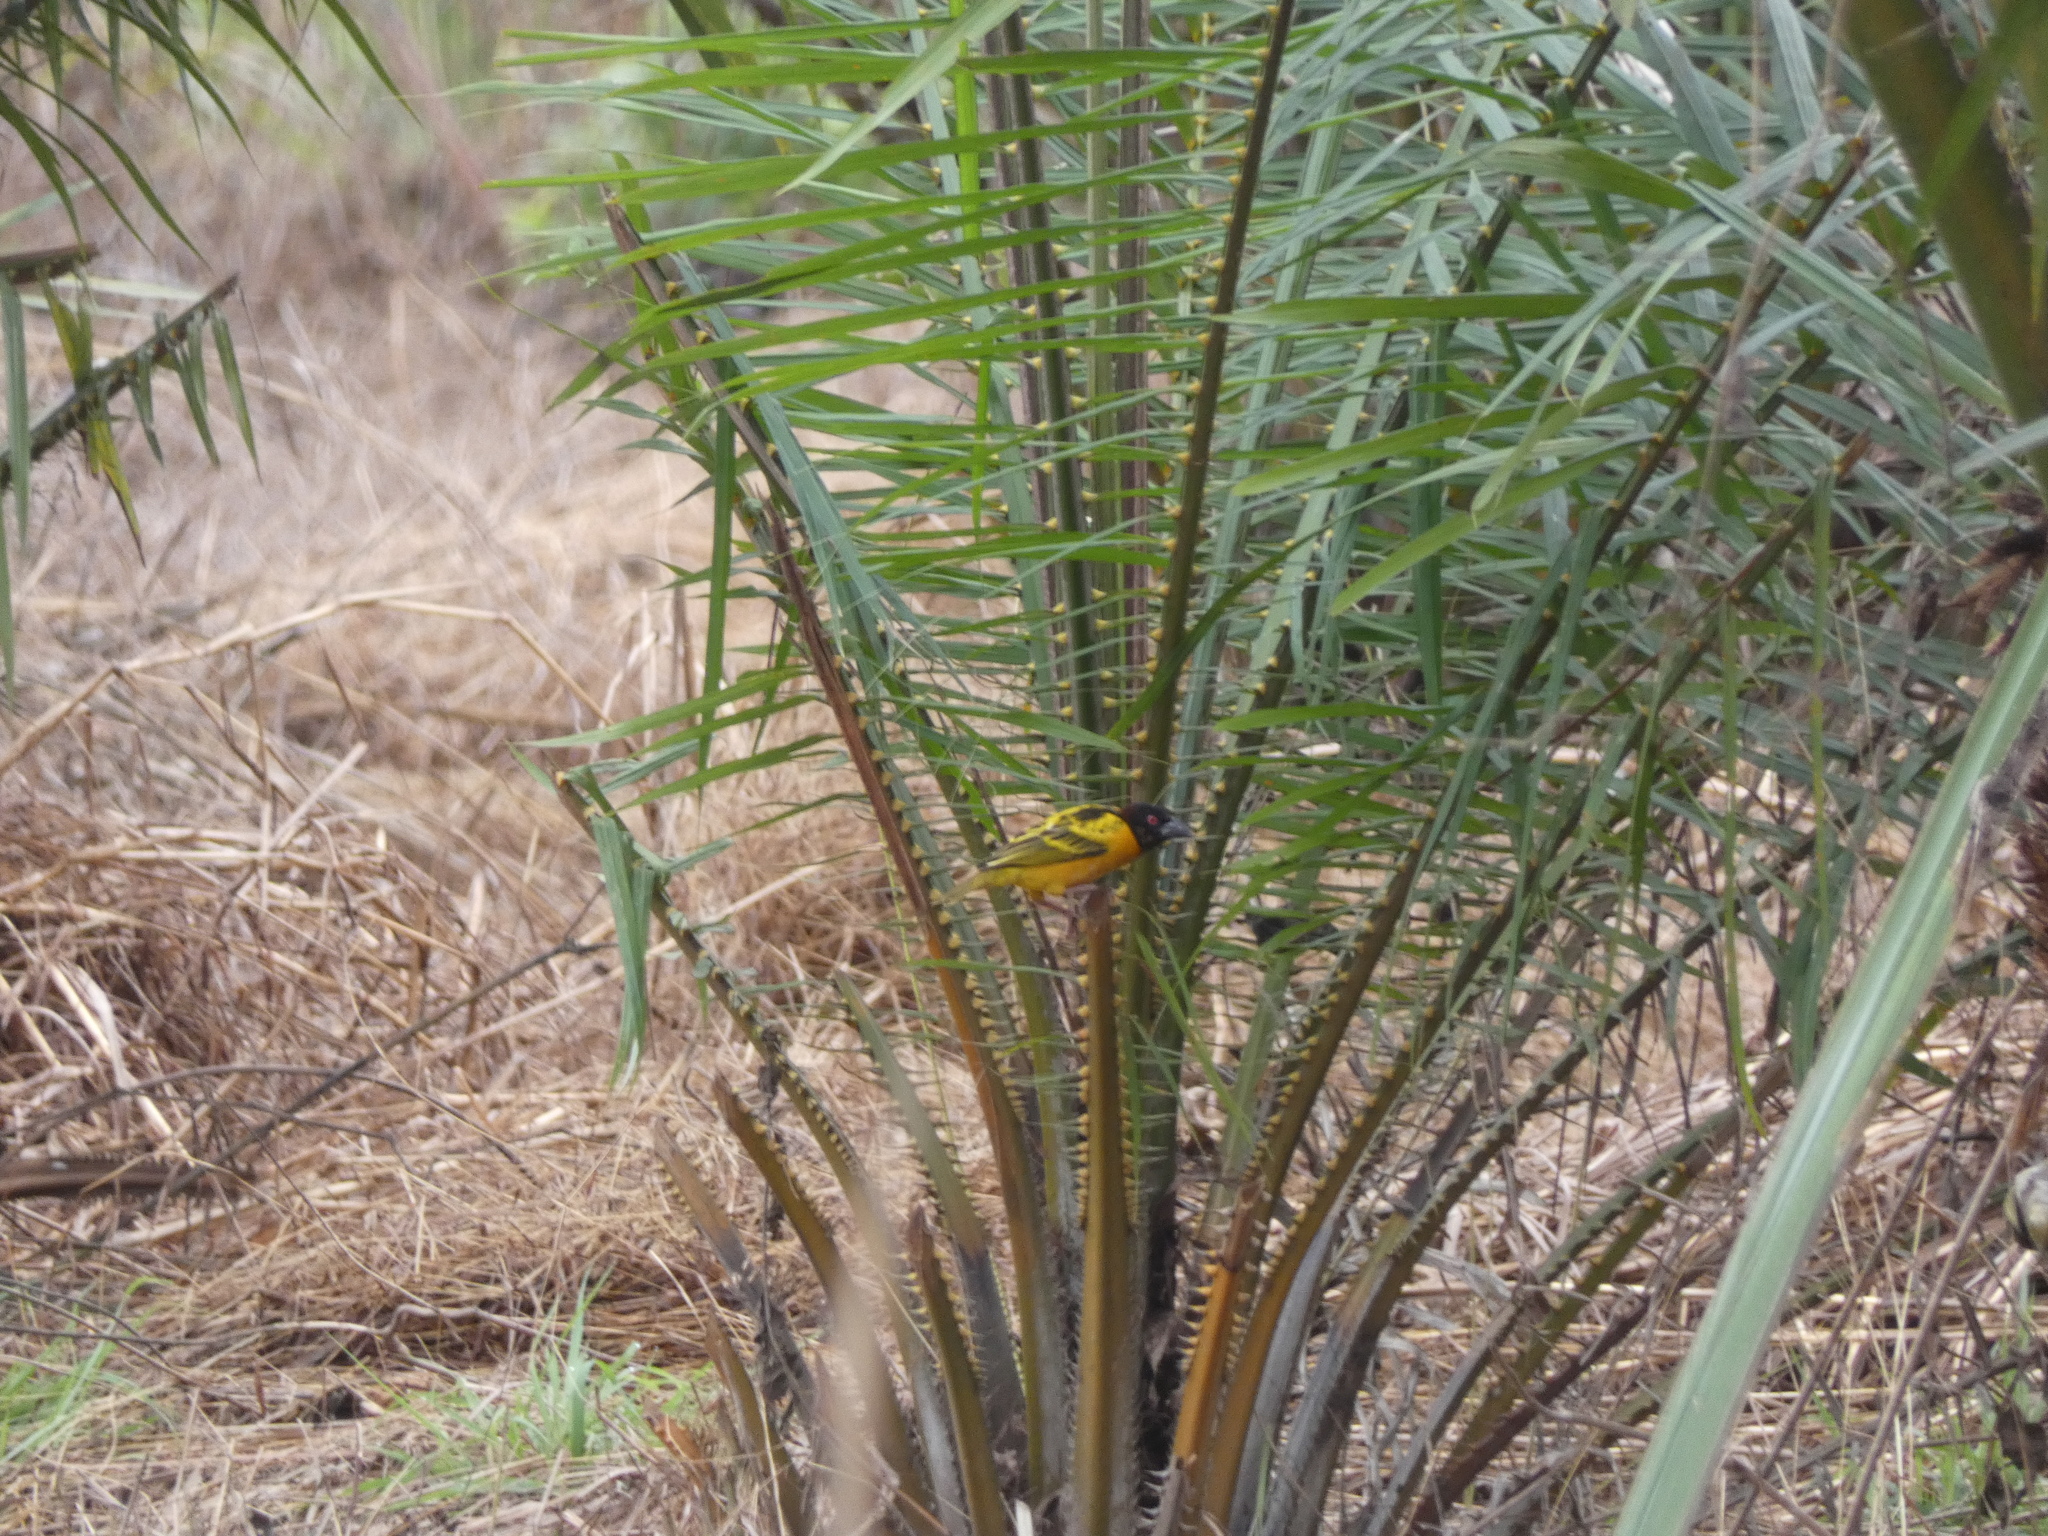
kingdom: Animalia
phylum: Chordata
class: Aves
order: Passeriformes
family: Ploceidae
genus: Ploceus
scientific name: Ploceus cucullatus
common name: Village weaver
